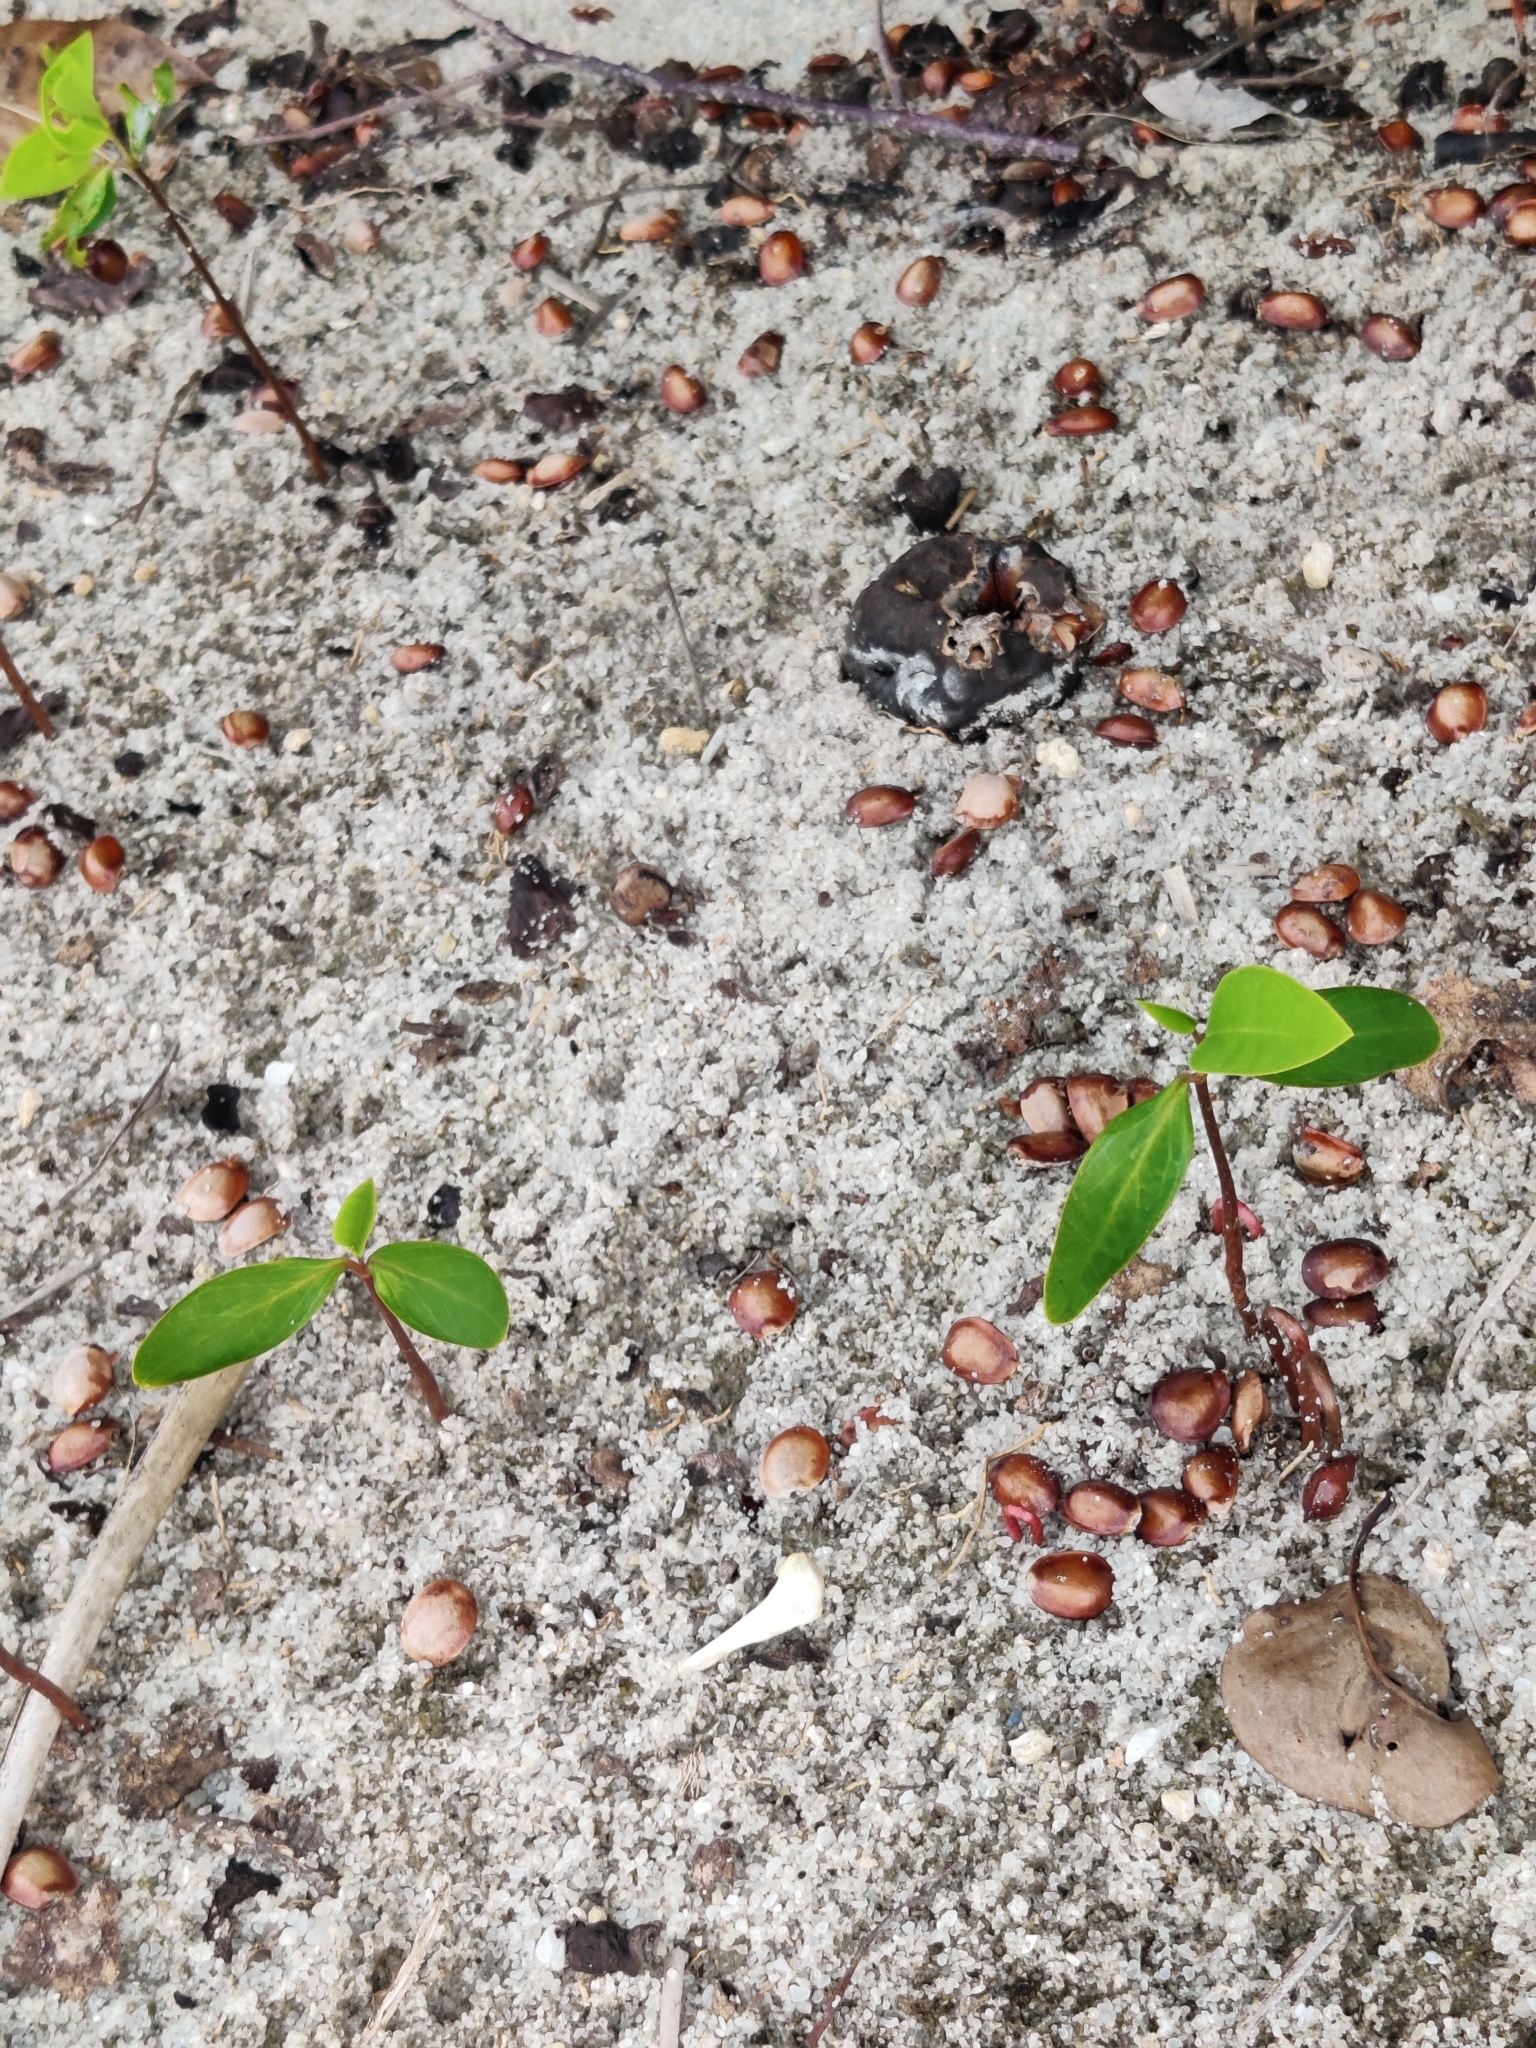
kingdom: Plantae
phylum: Tracheophyta
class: Magnoliopsida
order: Magnoliales
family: Annonaceae
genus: Annona
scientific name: Annona glabra
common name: Monkey apple
